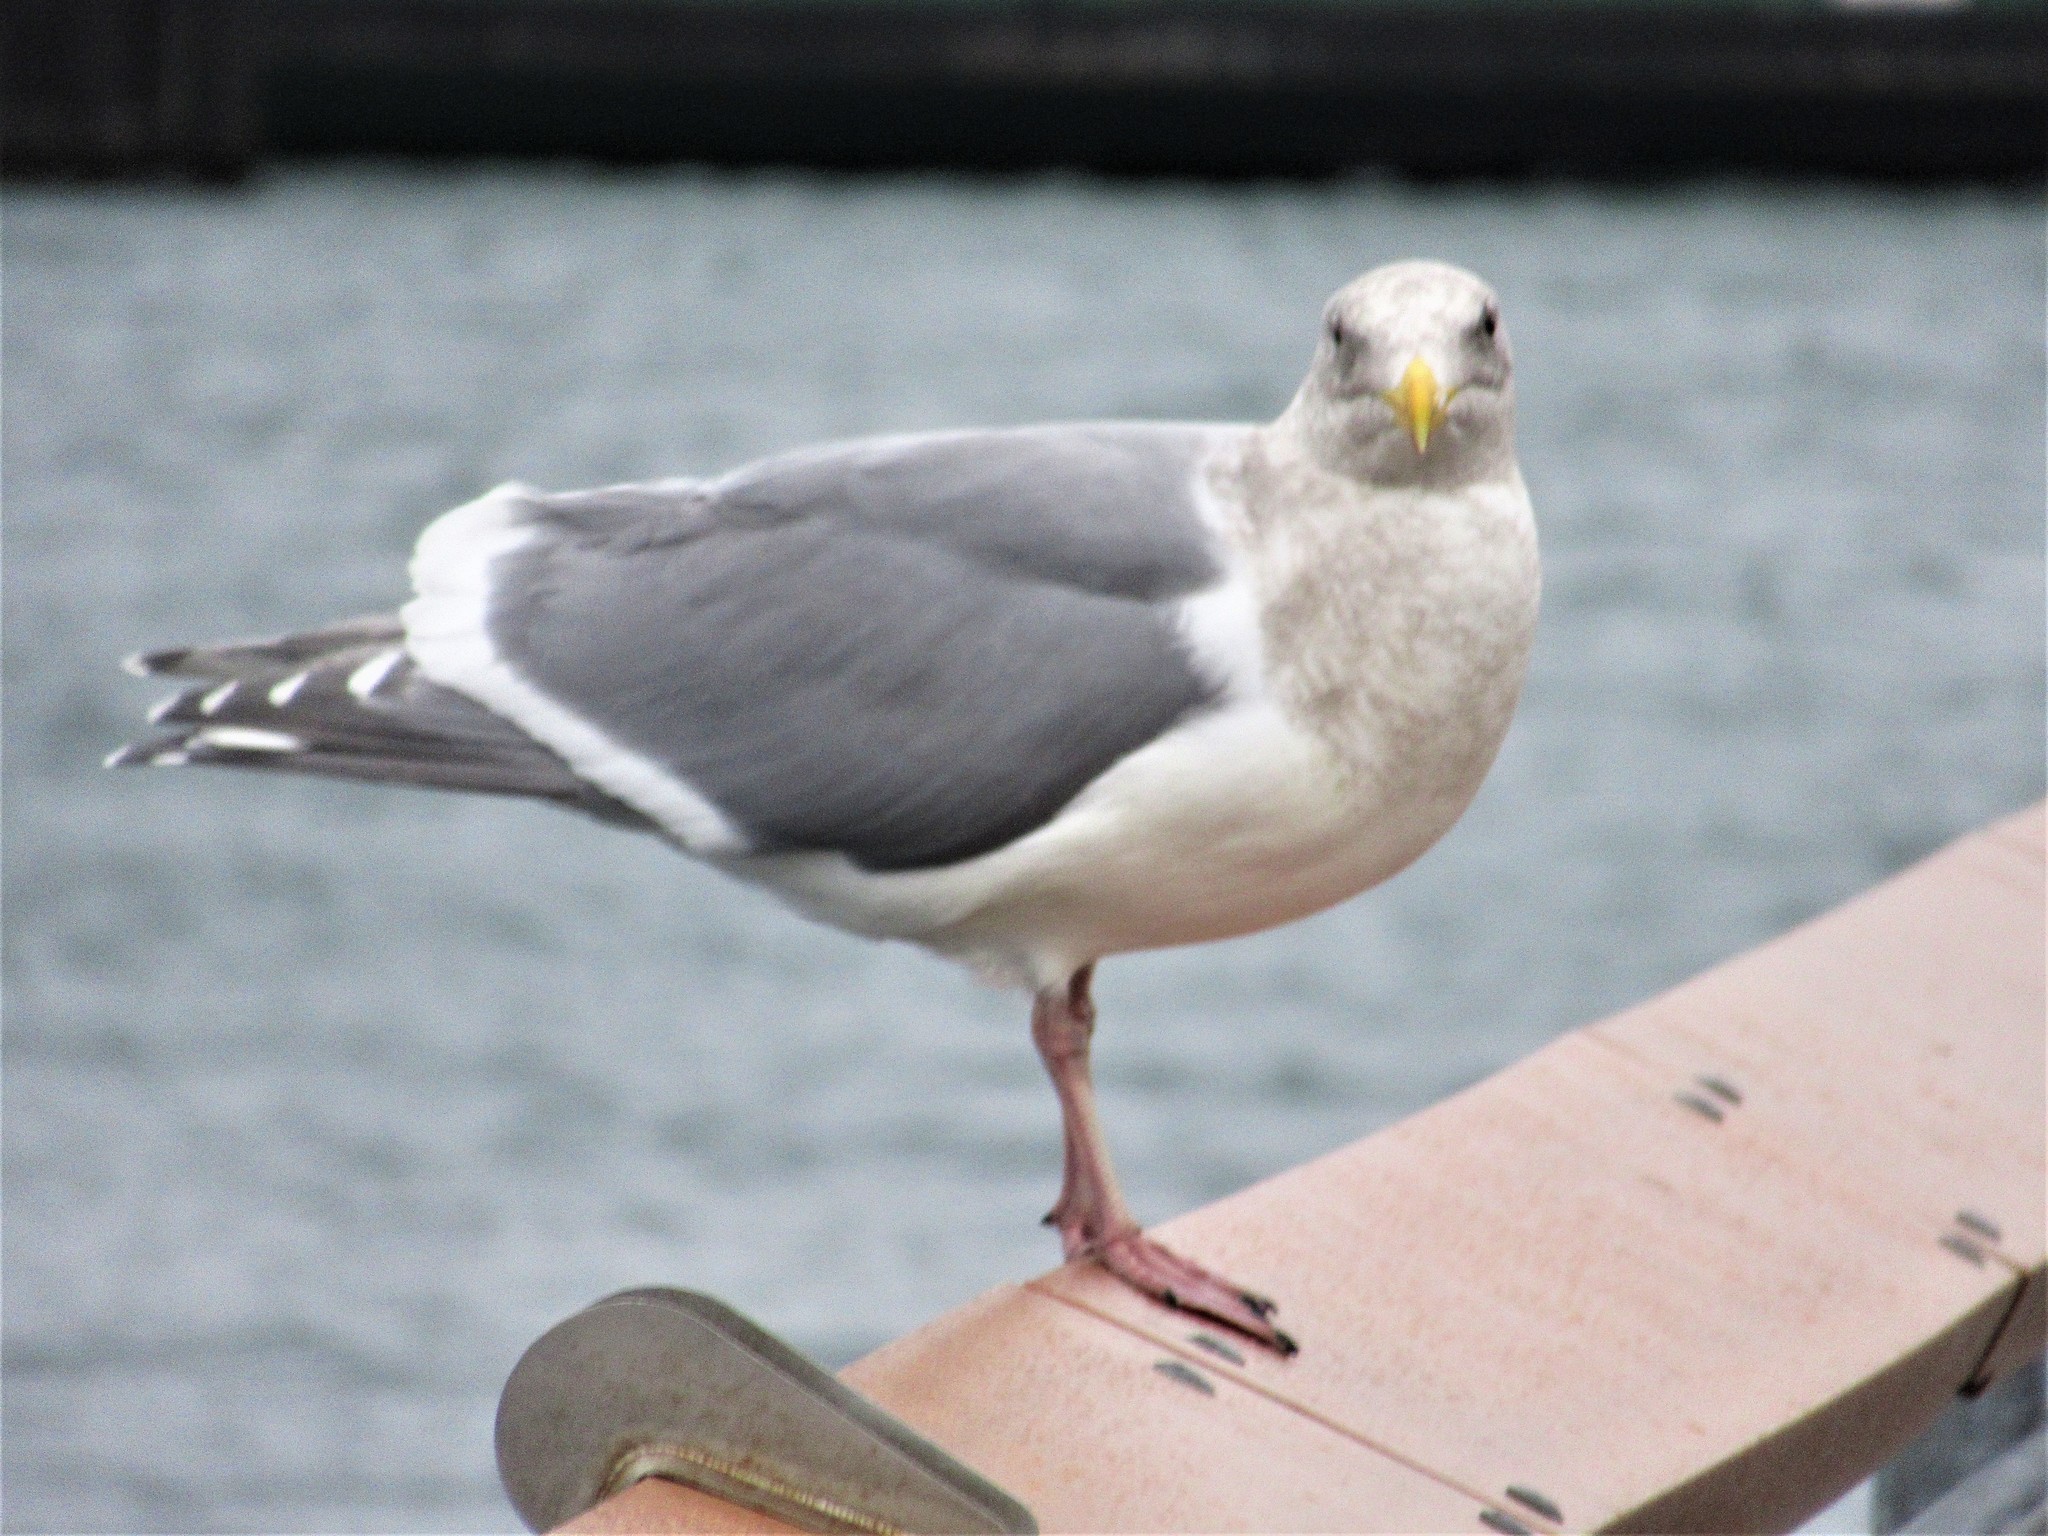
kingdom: Animalia
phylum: Chordata
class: Aves
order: Charadriiformes
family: Laridae
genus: Larus
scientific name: Larus glaucescens
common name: Glaucous-winged gull
